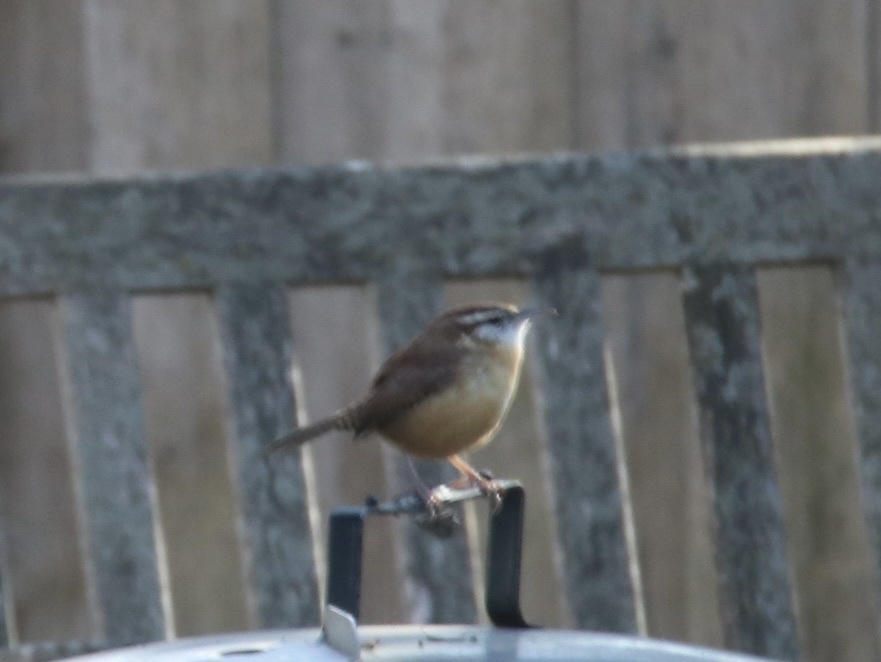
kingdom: Animalia
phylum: Chordata
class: Aves
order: Passeriformes
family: Troglodytidae
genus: Thryothorus
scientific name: Thryothorus ludovicianus
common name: Carolina wren
